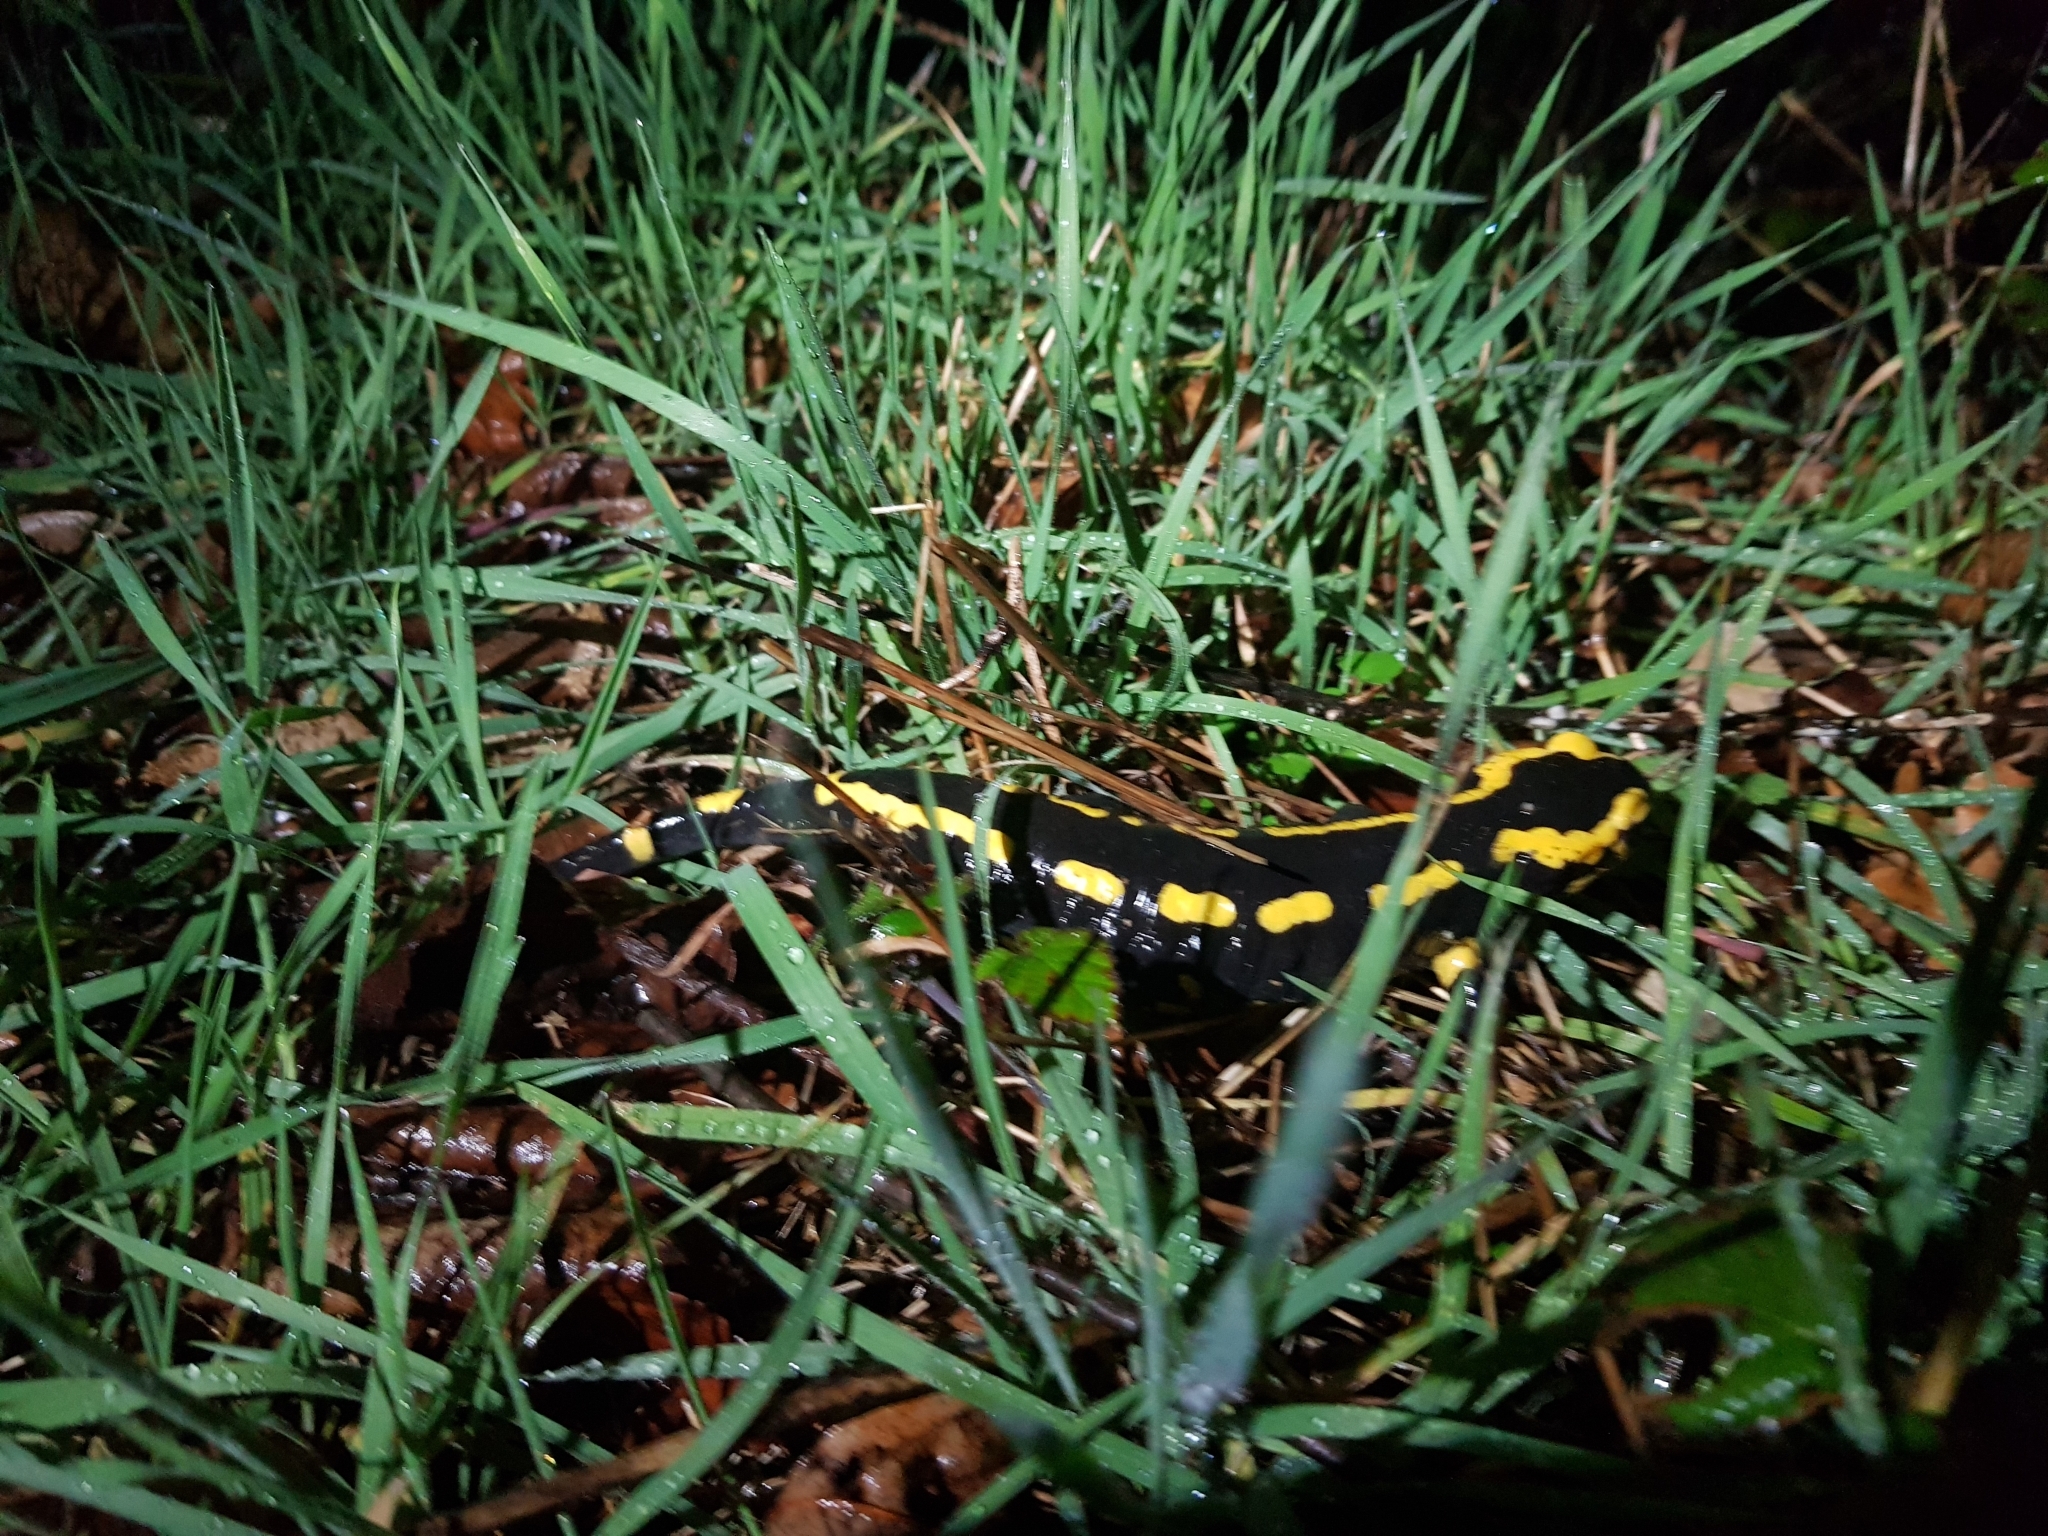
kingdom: Animalia
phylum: Chordata
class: Amphibia
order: Caudata
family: Salamandridae
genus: Salamandra
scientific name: Salamandra salamandra
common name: Fire salamander
